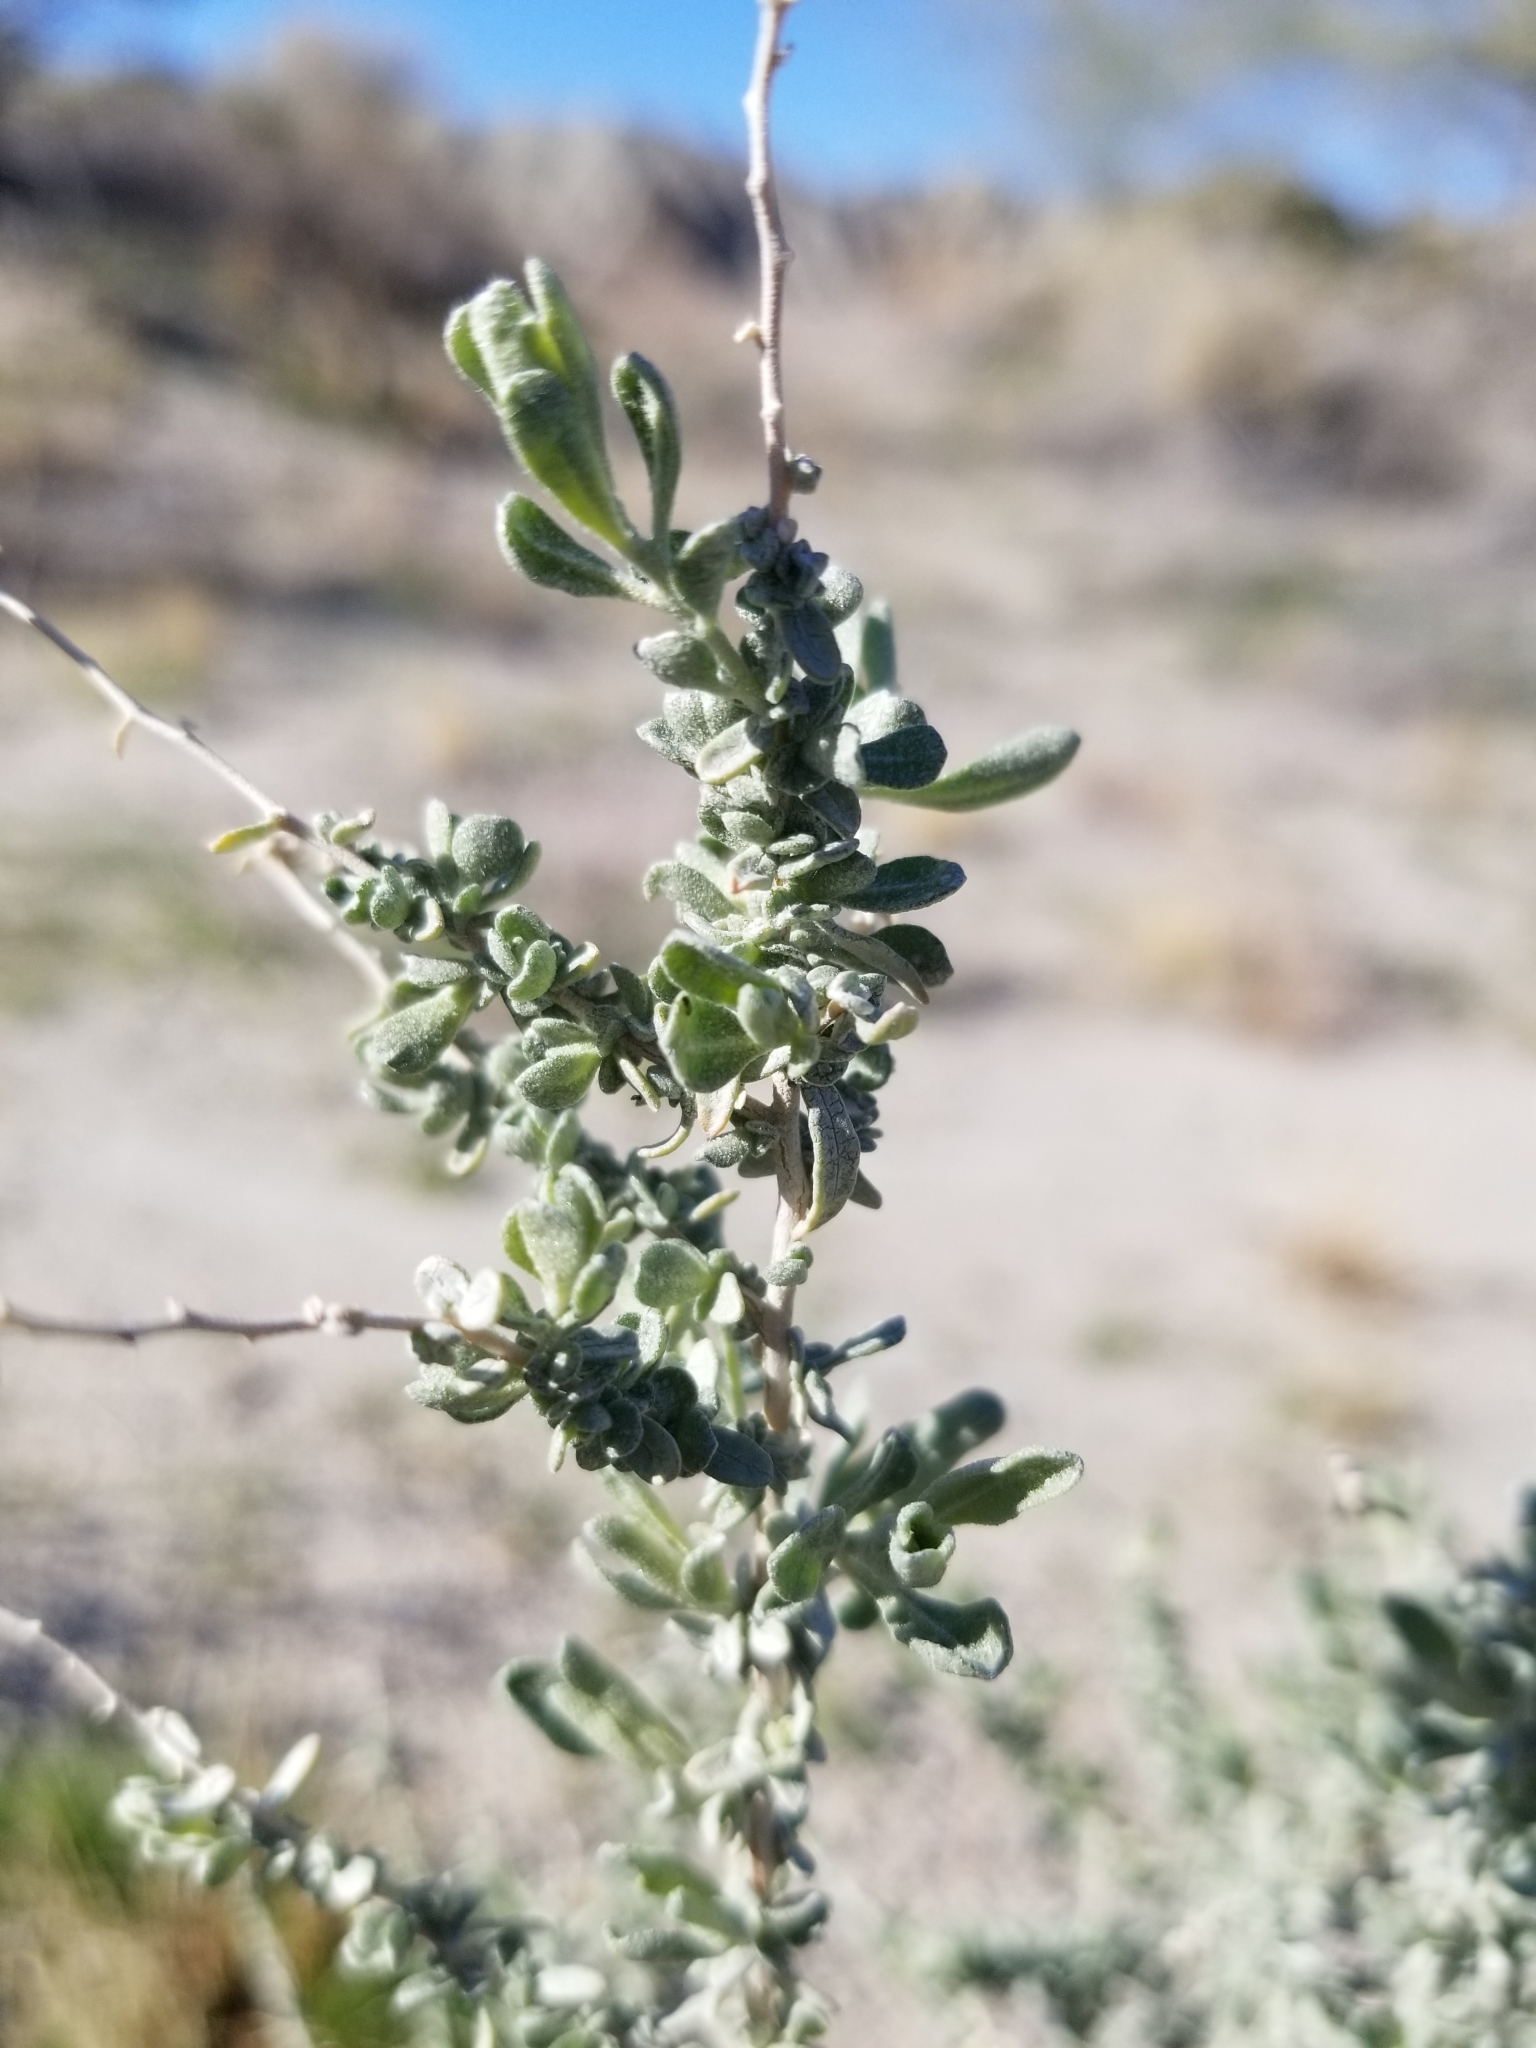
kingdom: Plantae
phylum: Tracheophyta
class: Magnoliopsida
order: Caryophyllales
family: Amaranthaceae
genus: Atriplex
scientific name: Atriplex polycarpa
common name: Desert saltbush
